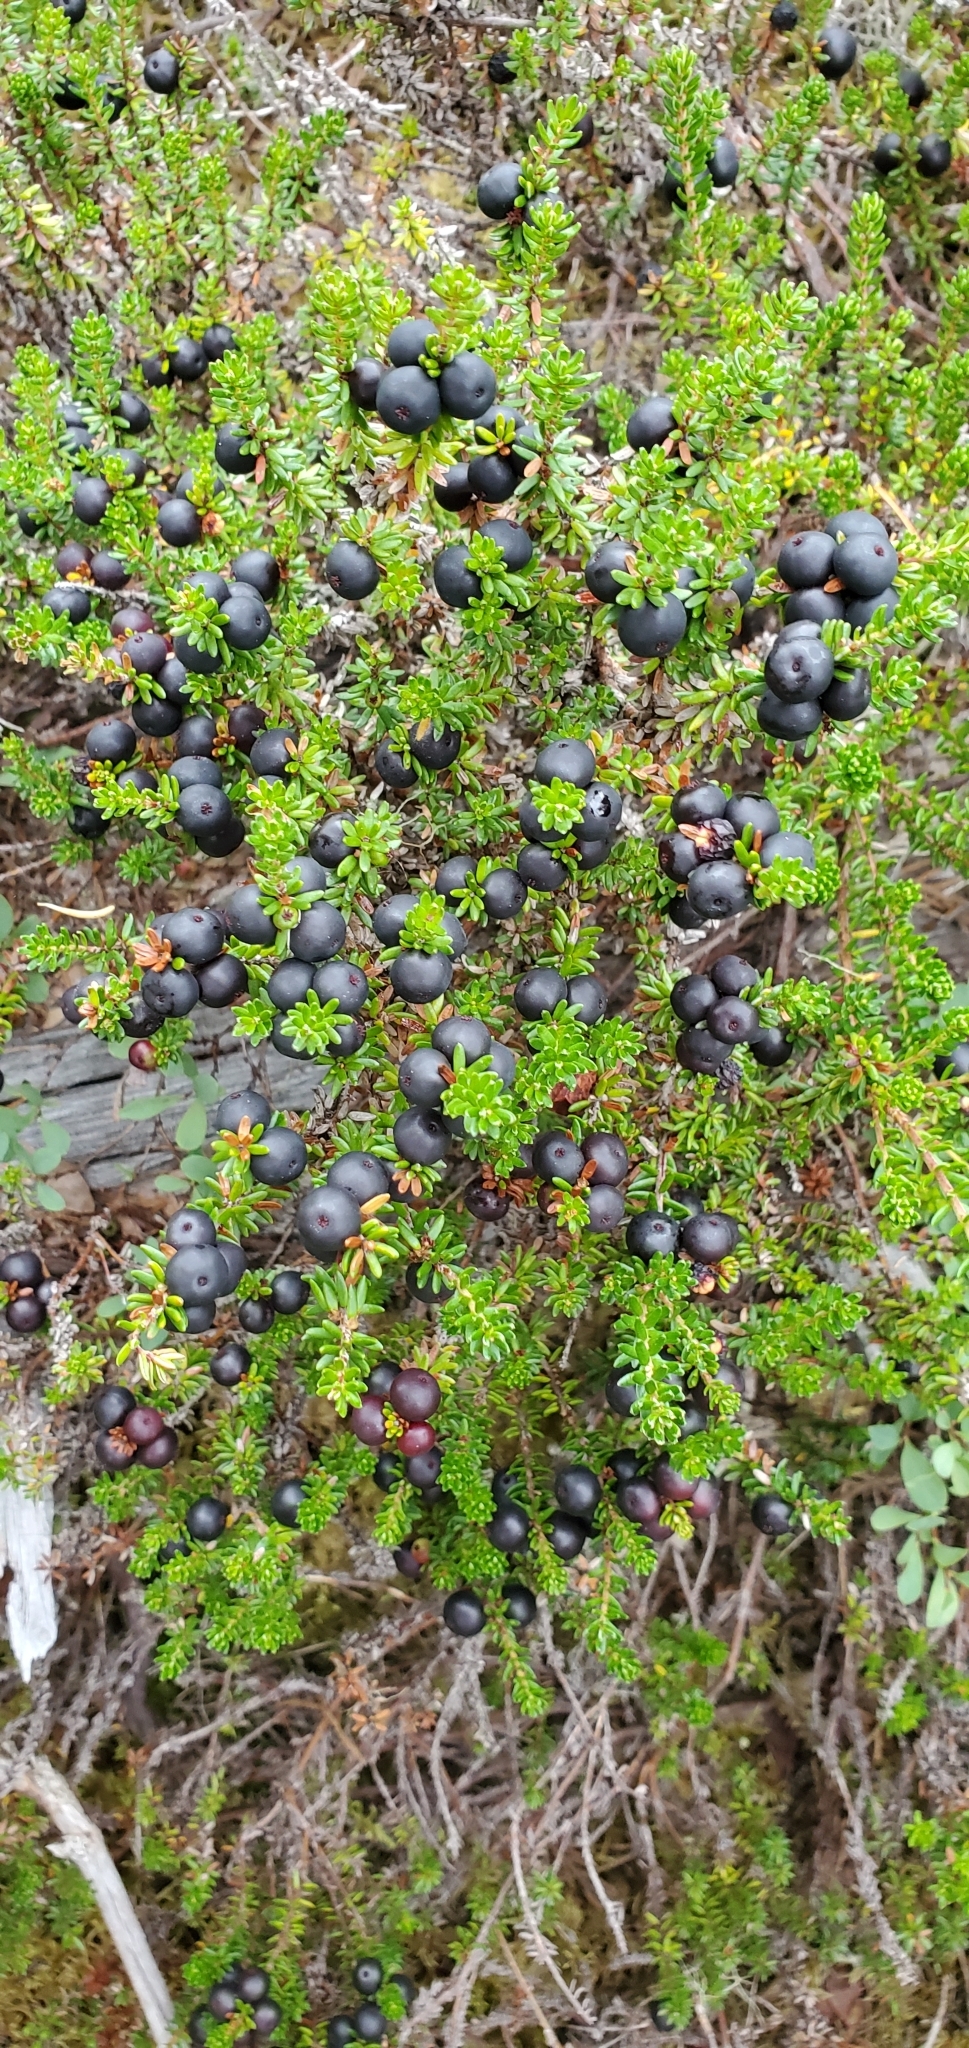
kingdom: Plantae
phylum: Tracheophyta
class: Magnoliopsida
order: Ericales
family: Ericaceae
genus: Empetrum
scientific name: Empetrum nigrum
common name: Black crowberry
